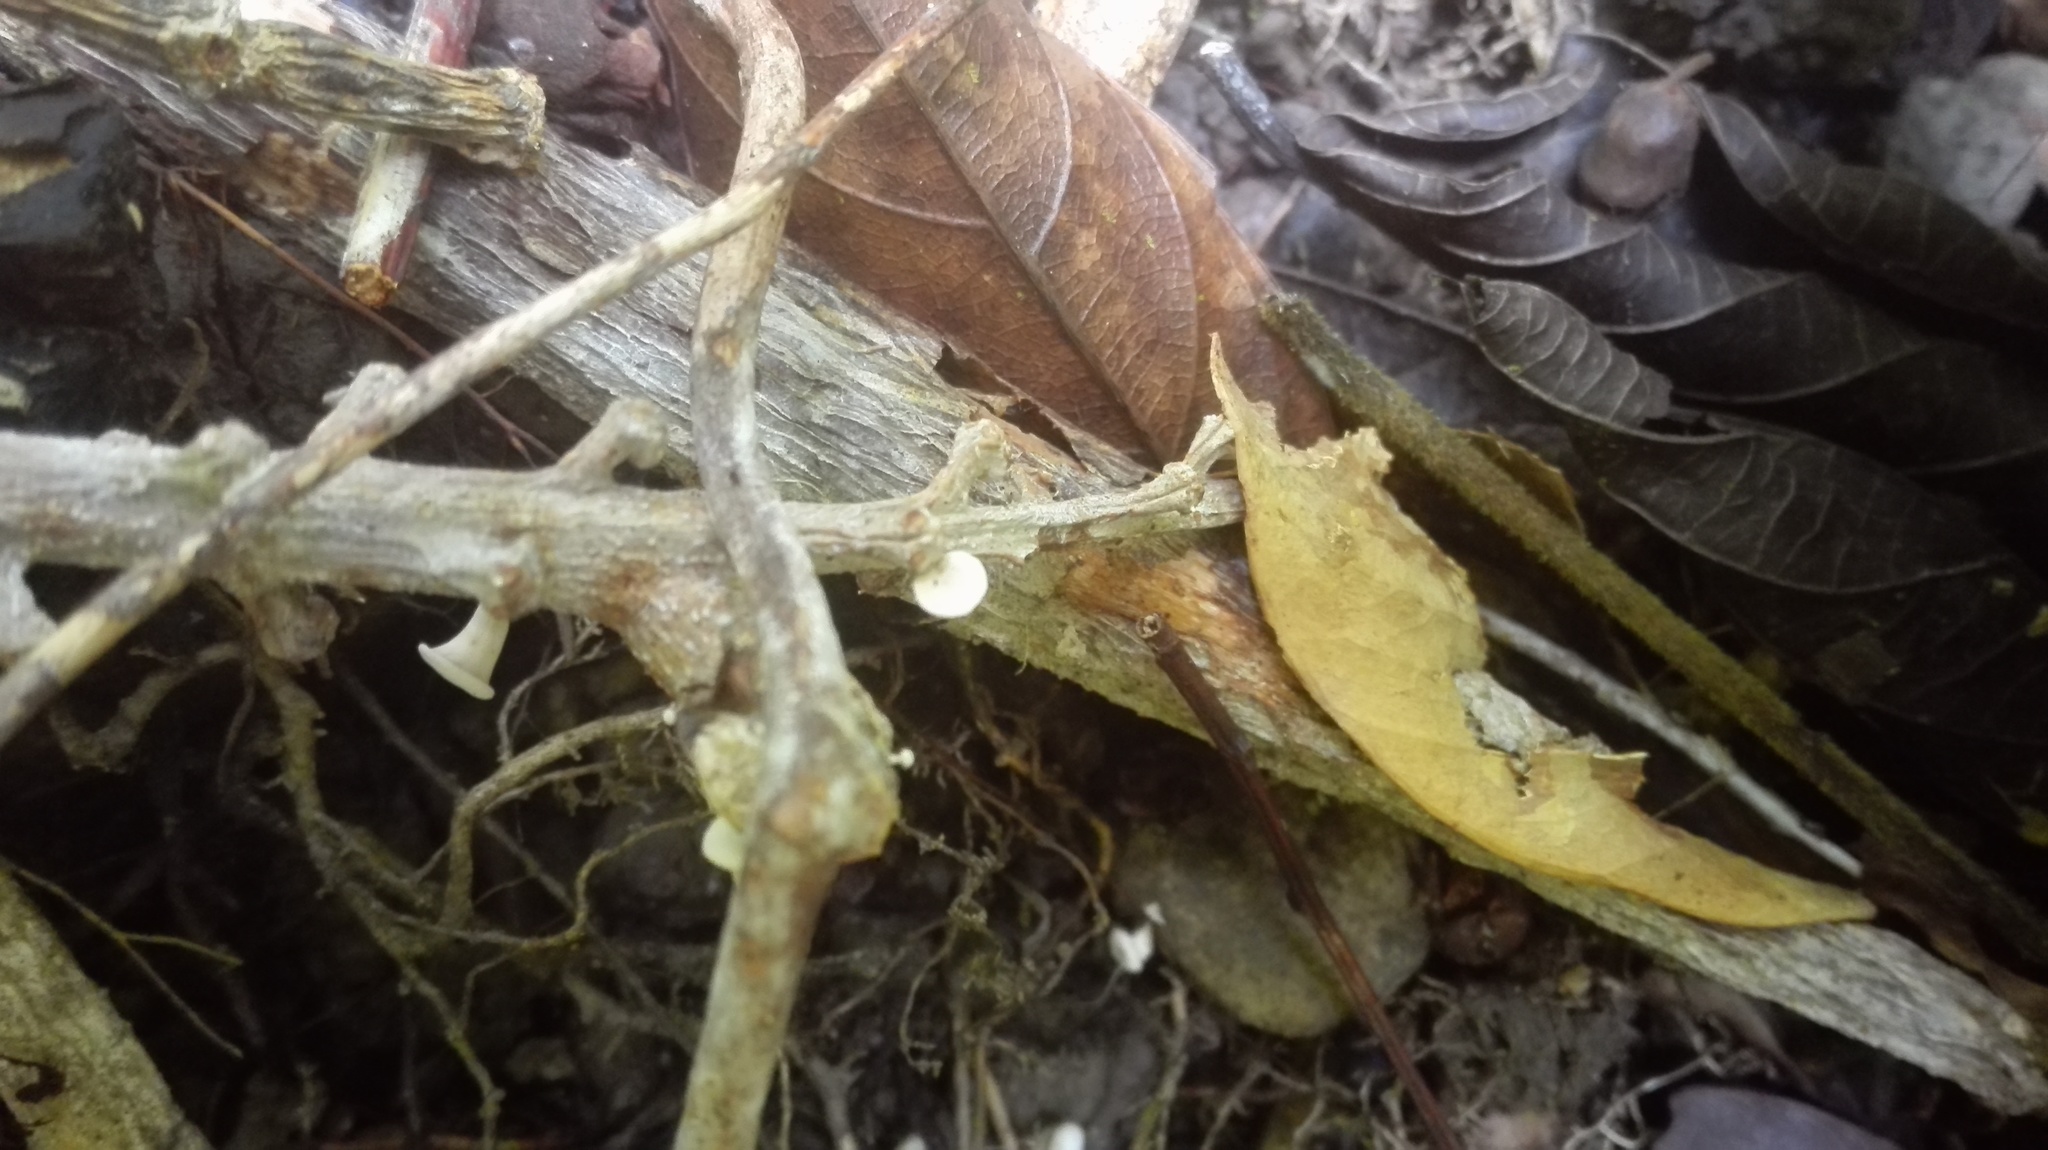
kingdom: Fungi
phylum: Basidiomycota
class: Agaricomycetes
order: Agaricales
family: Omphalotaceae
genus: Gymnopus
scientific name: Gymnopus montagnei
